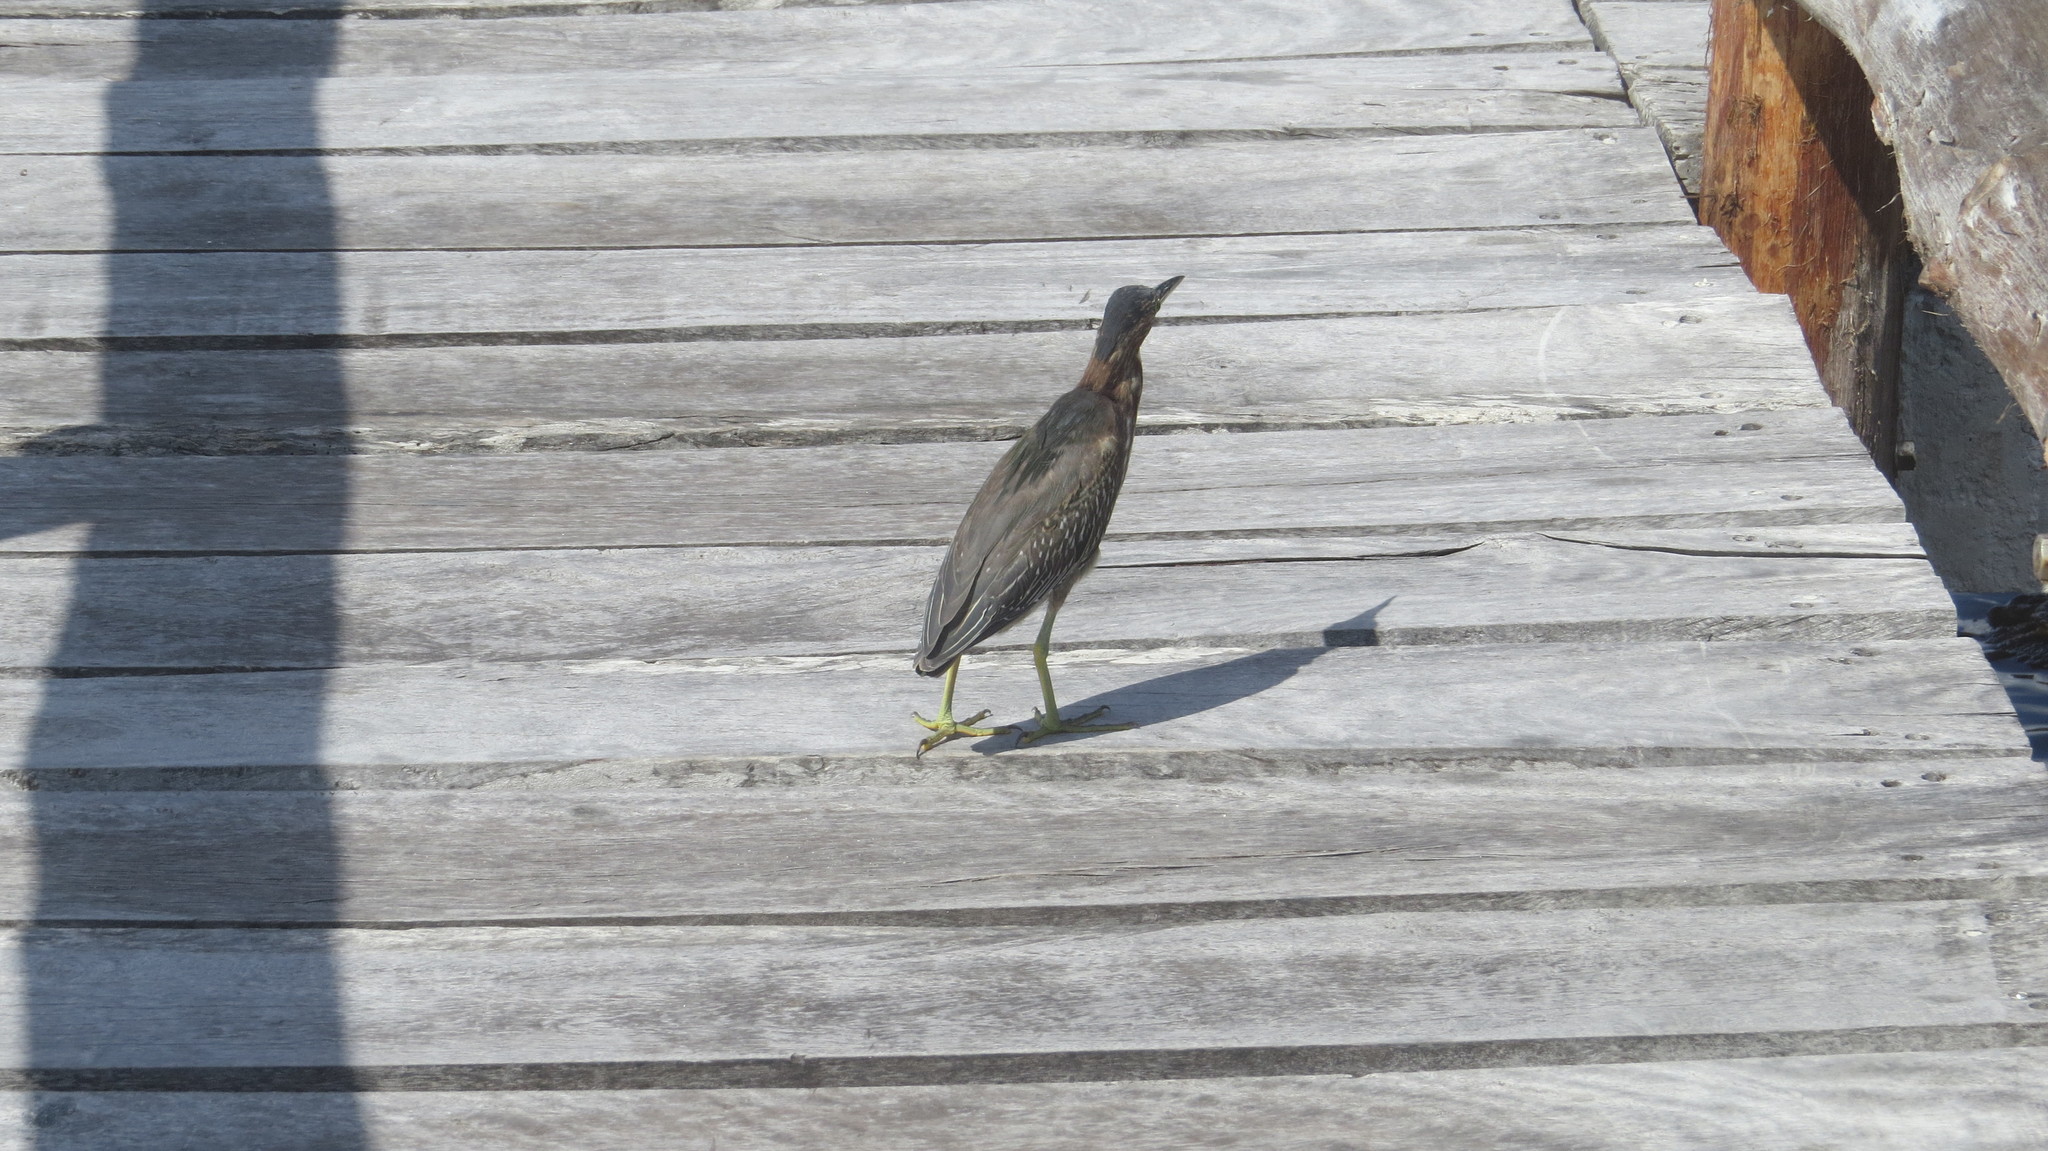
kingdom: Animalia
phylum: Chordata
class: Aves
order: Pelecaniformes
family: Ardeidae
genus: Butorides
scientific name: Butorides virescens
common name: Green heron
